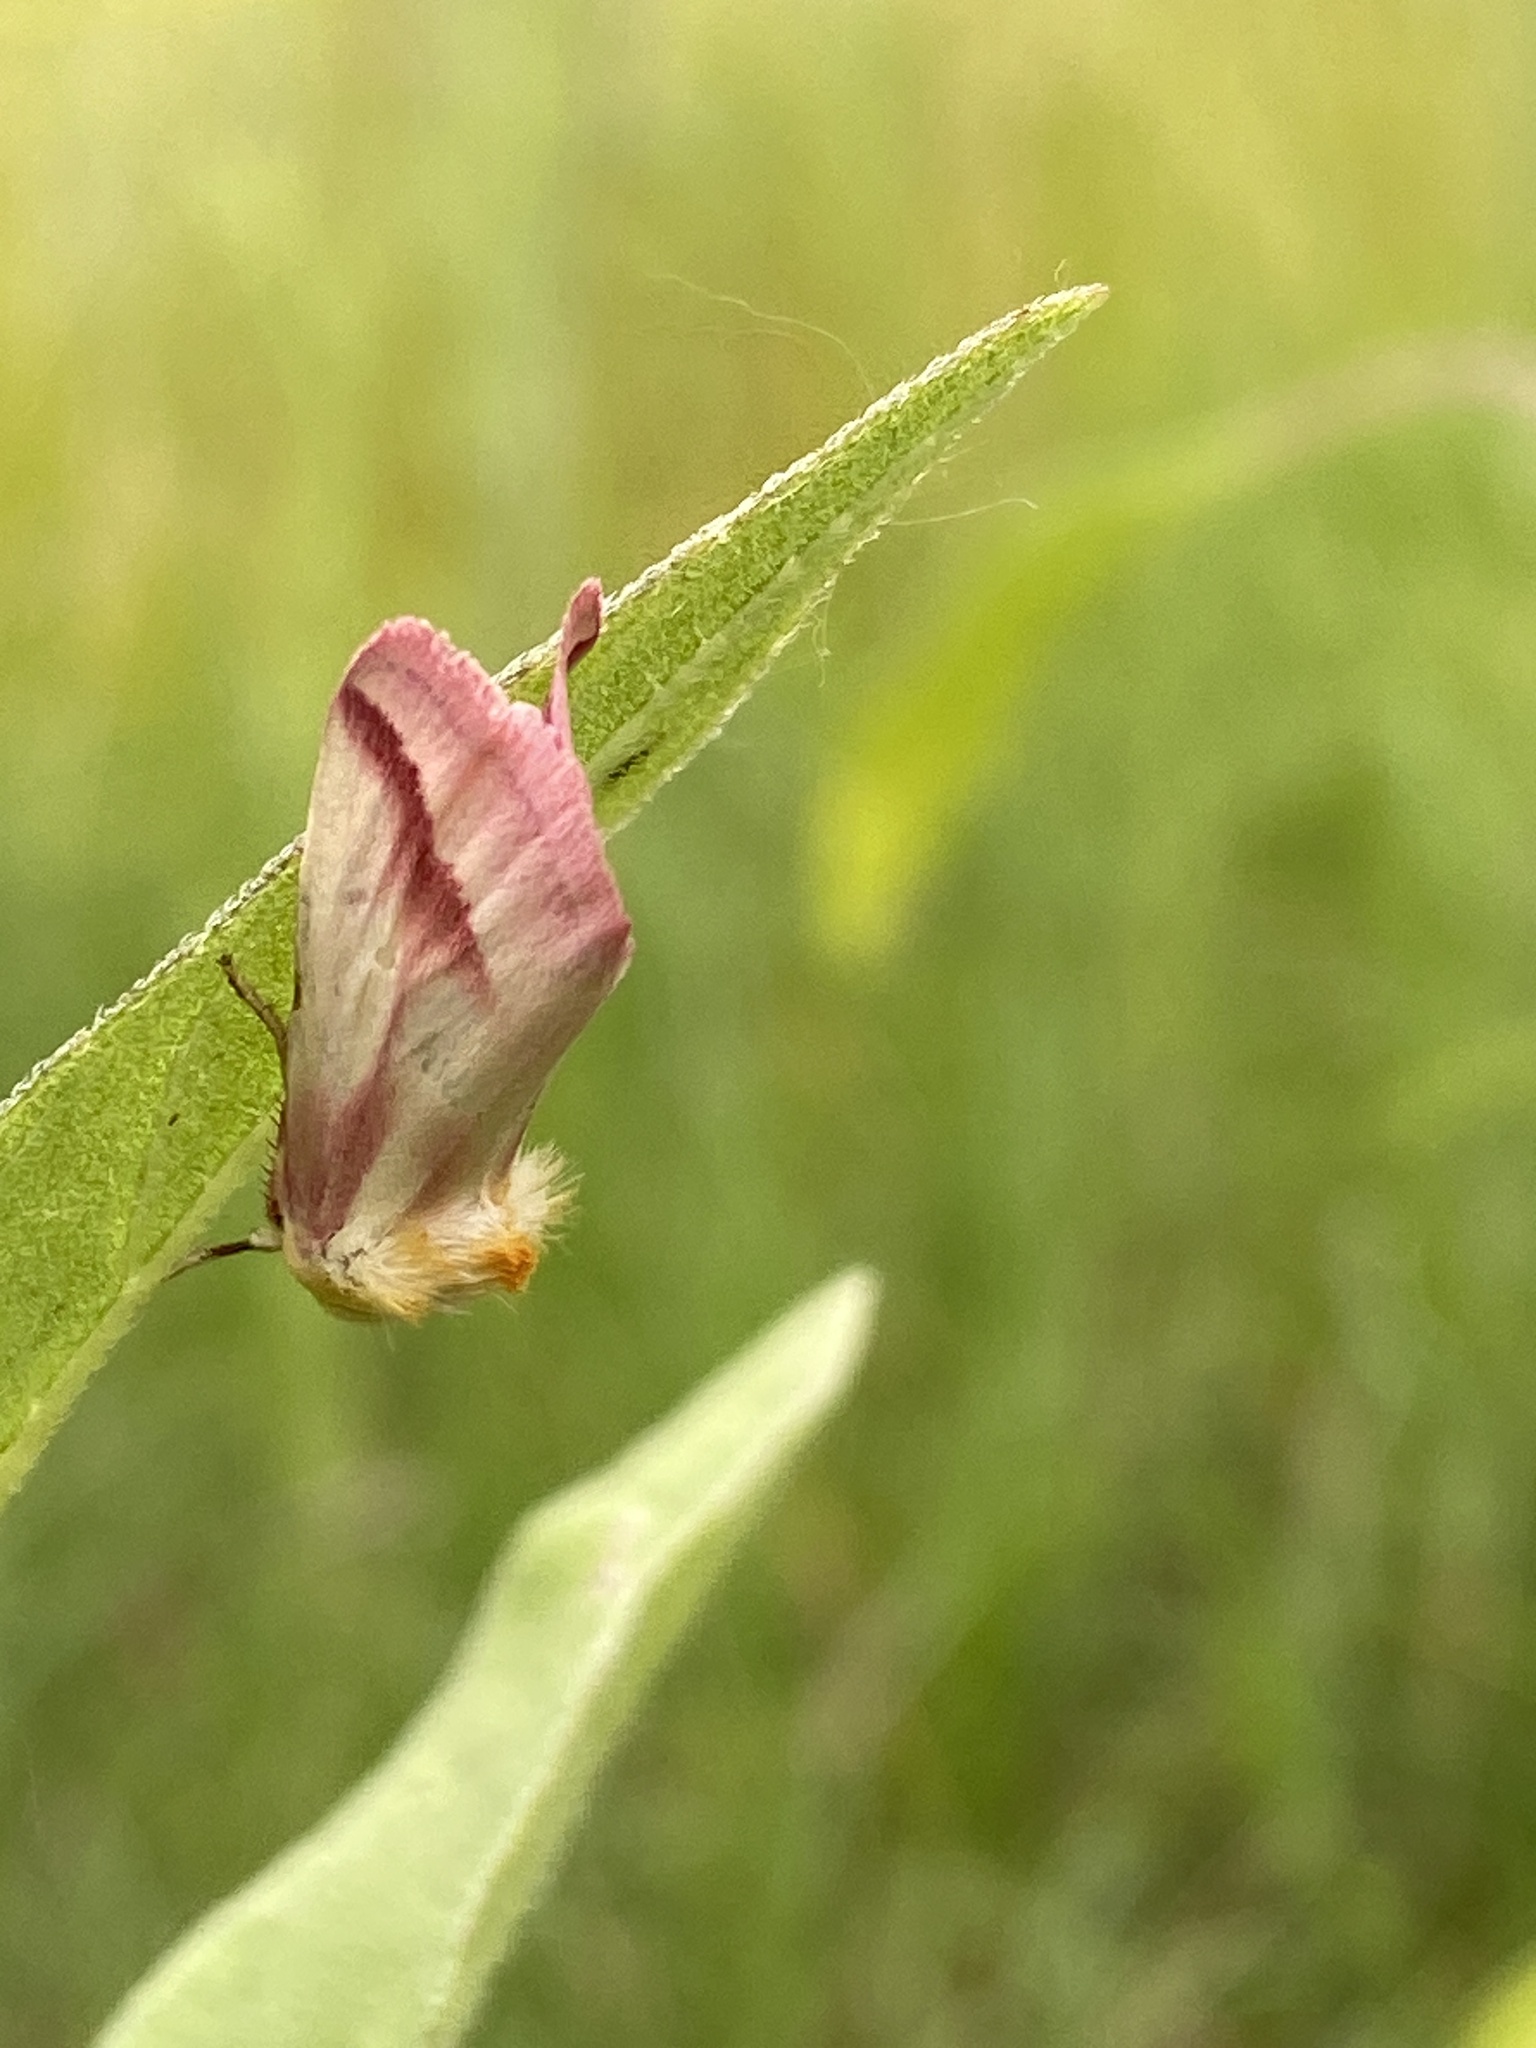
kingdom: Animalia
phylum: Arthropoda
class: Insecta
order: Lepidoptera
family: Noctuidae
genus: Schinia
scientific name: Schinia gaurae
